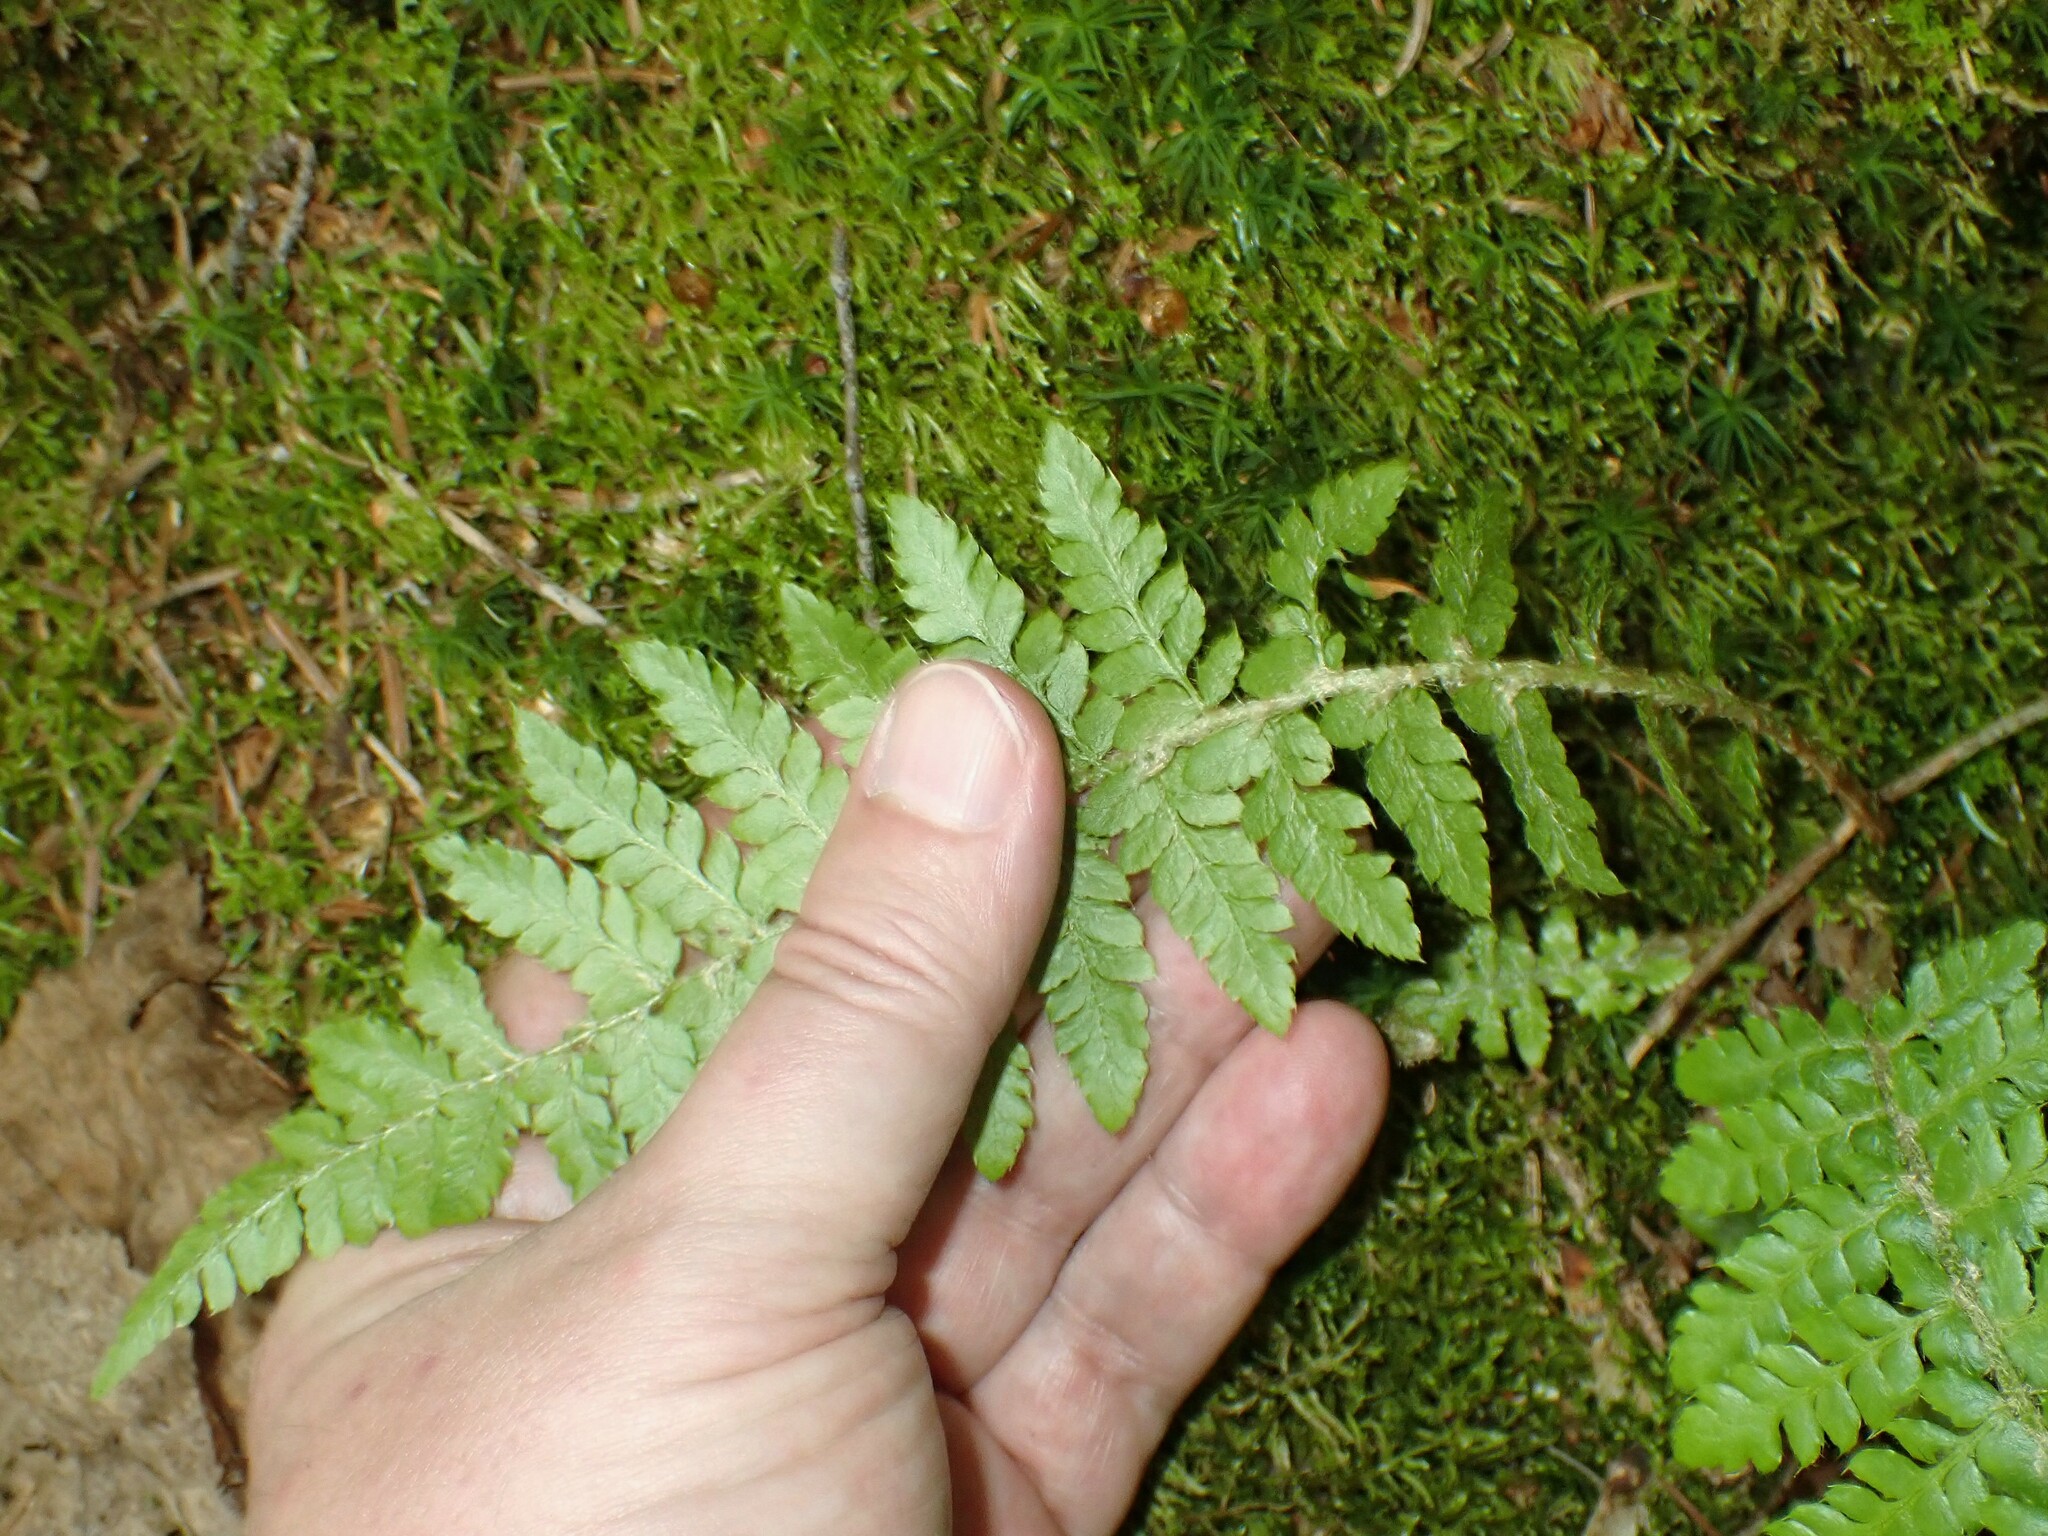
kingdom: Plantae
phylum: Tracheophyta
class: Polypodiopsida
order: Polypodiales
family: Dryopteridaceae
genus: Polystichum
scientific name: Polystichum braunii
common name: Braun's holly fern
